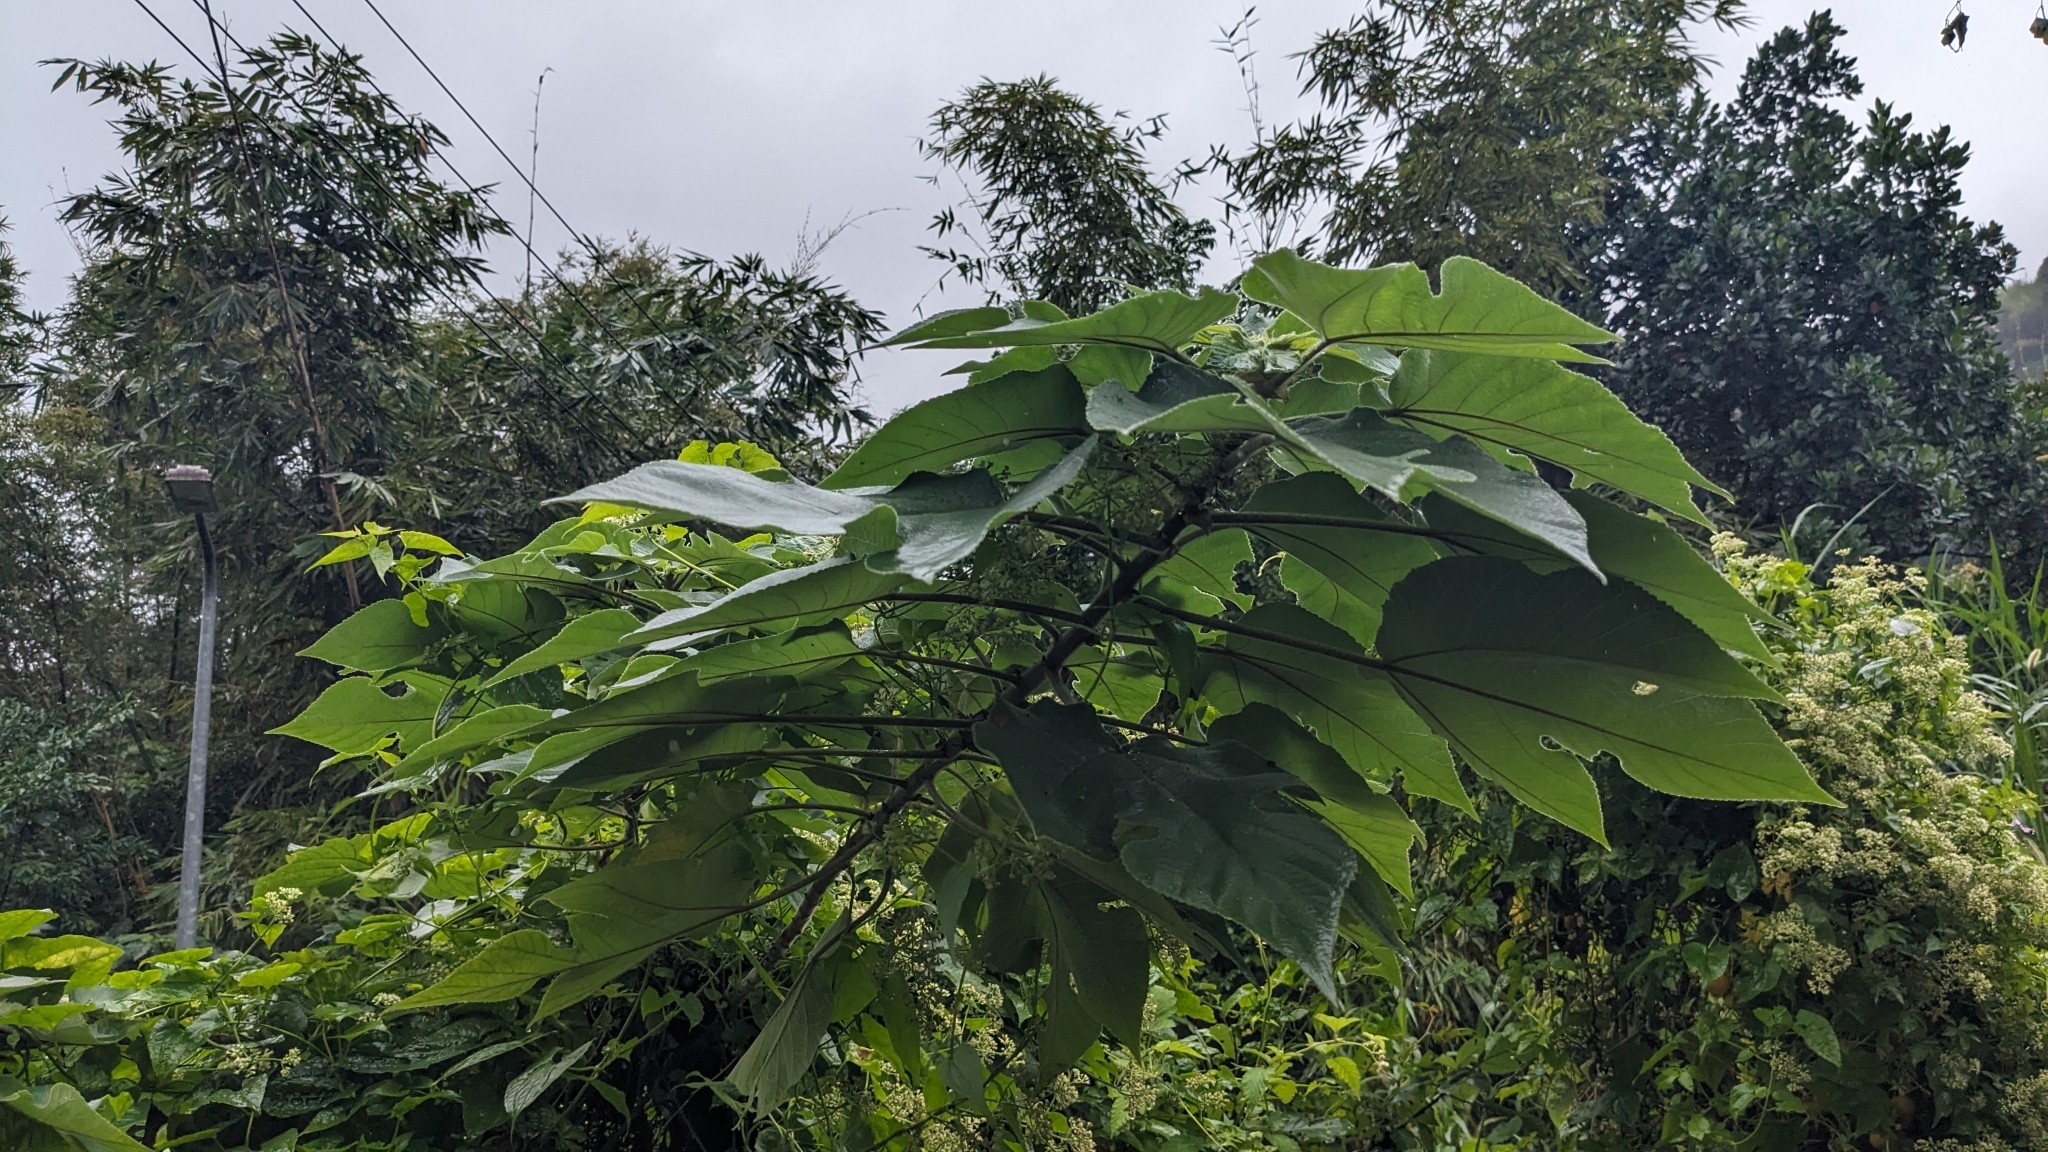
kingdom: Plantae
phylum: Tracheophyta
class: Magnoliopsida
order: Rosales
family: Moraceae
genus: Broussonetia
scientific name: Broussonetia papyrifera
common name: Paper mulberry
